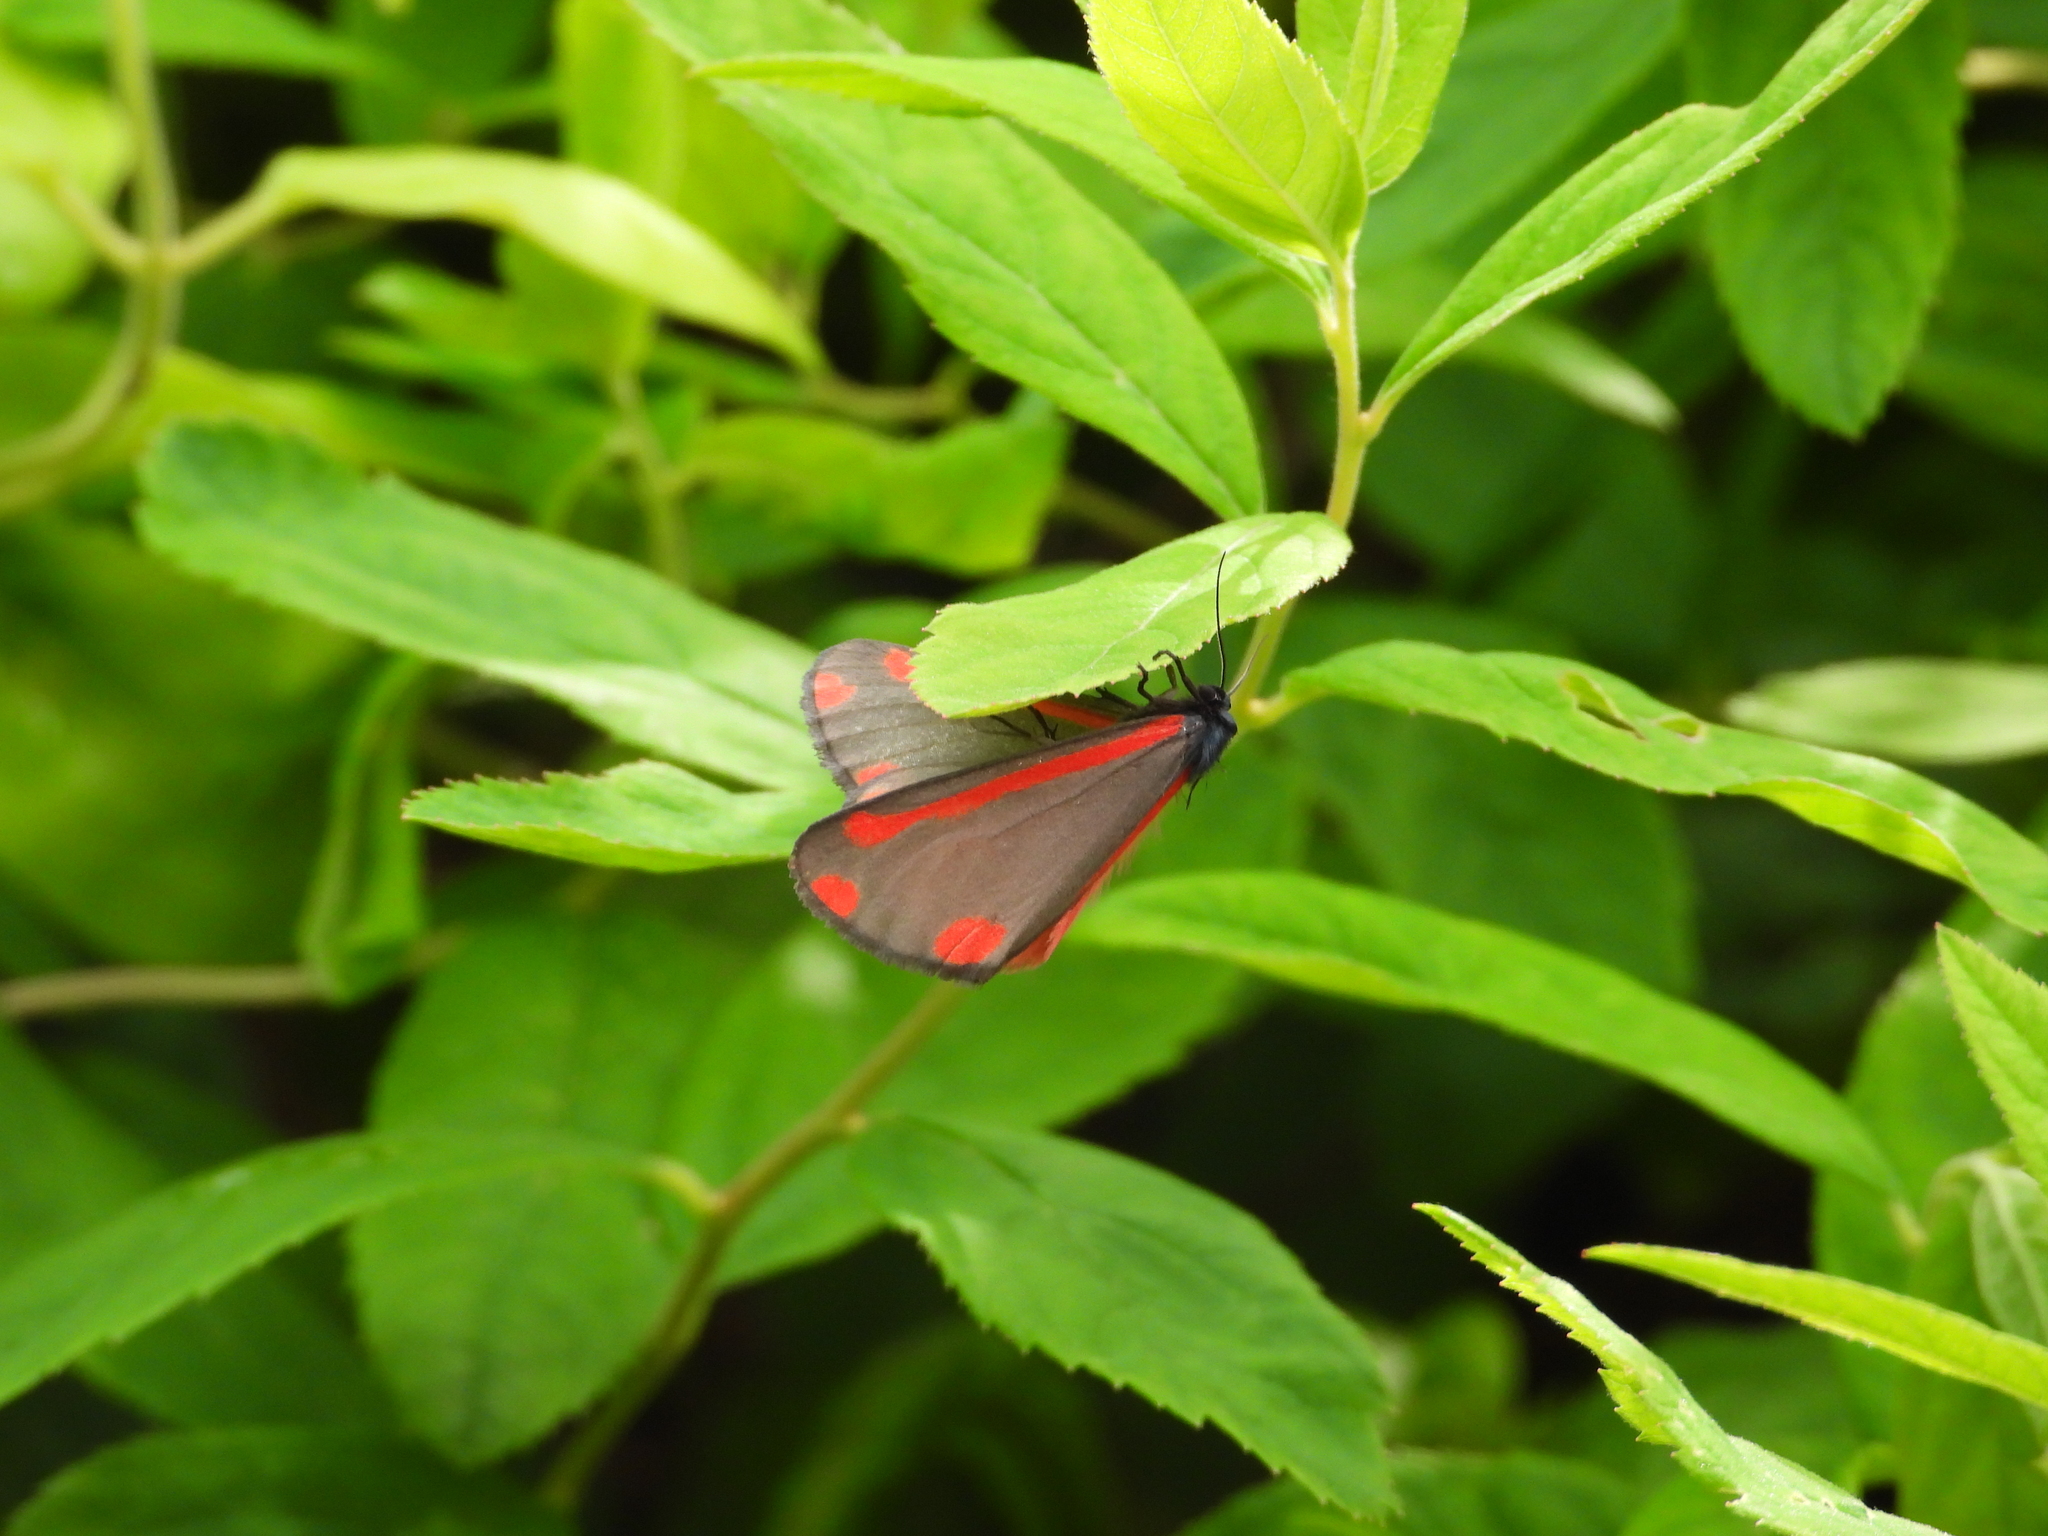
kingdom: Animalia
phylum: Arthropoda
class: Insecta
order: Lepidoptera
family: Erebidae
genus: Tyria
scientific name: Tyria jacobaeae
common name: Cinnabar
